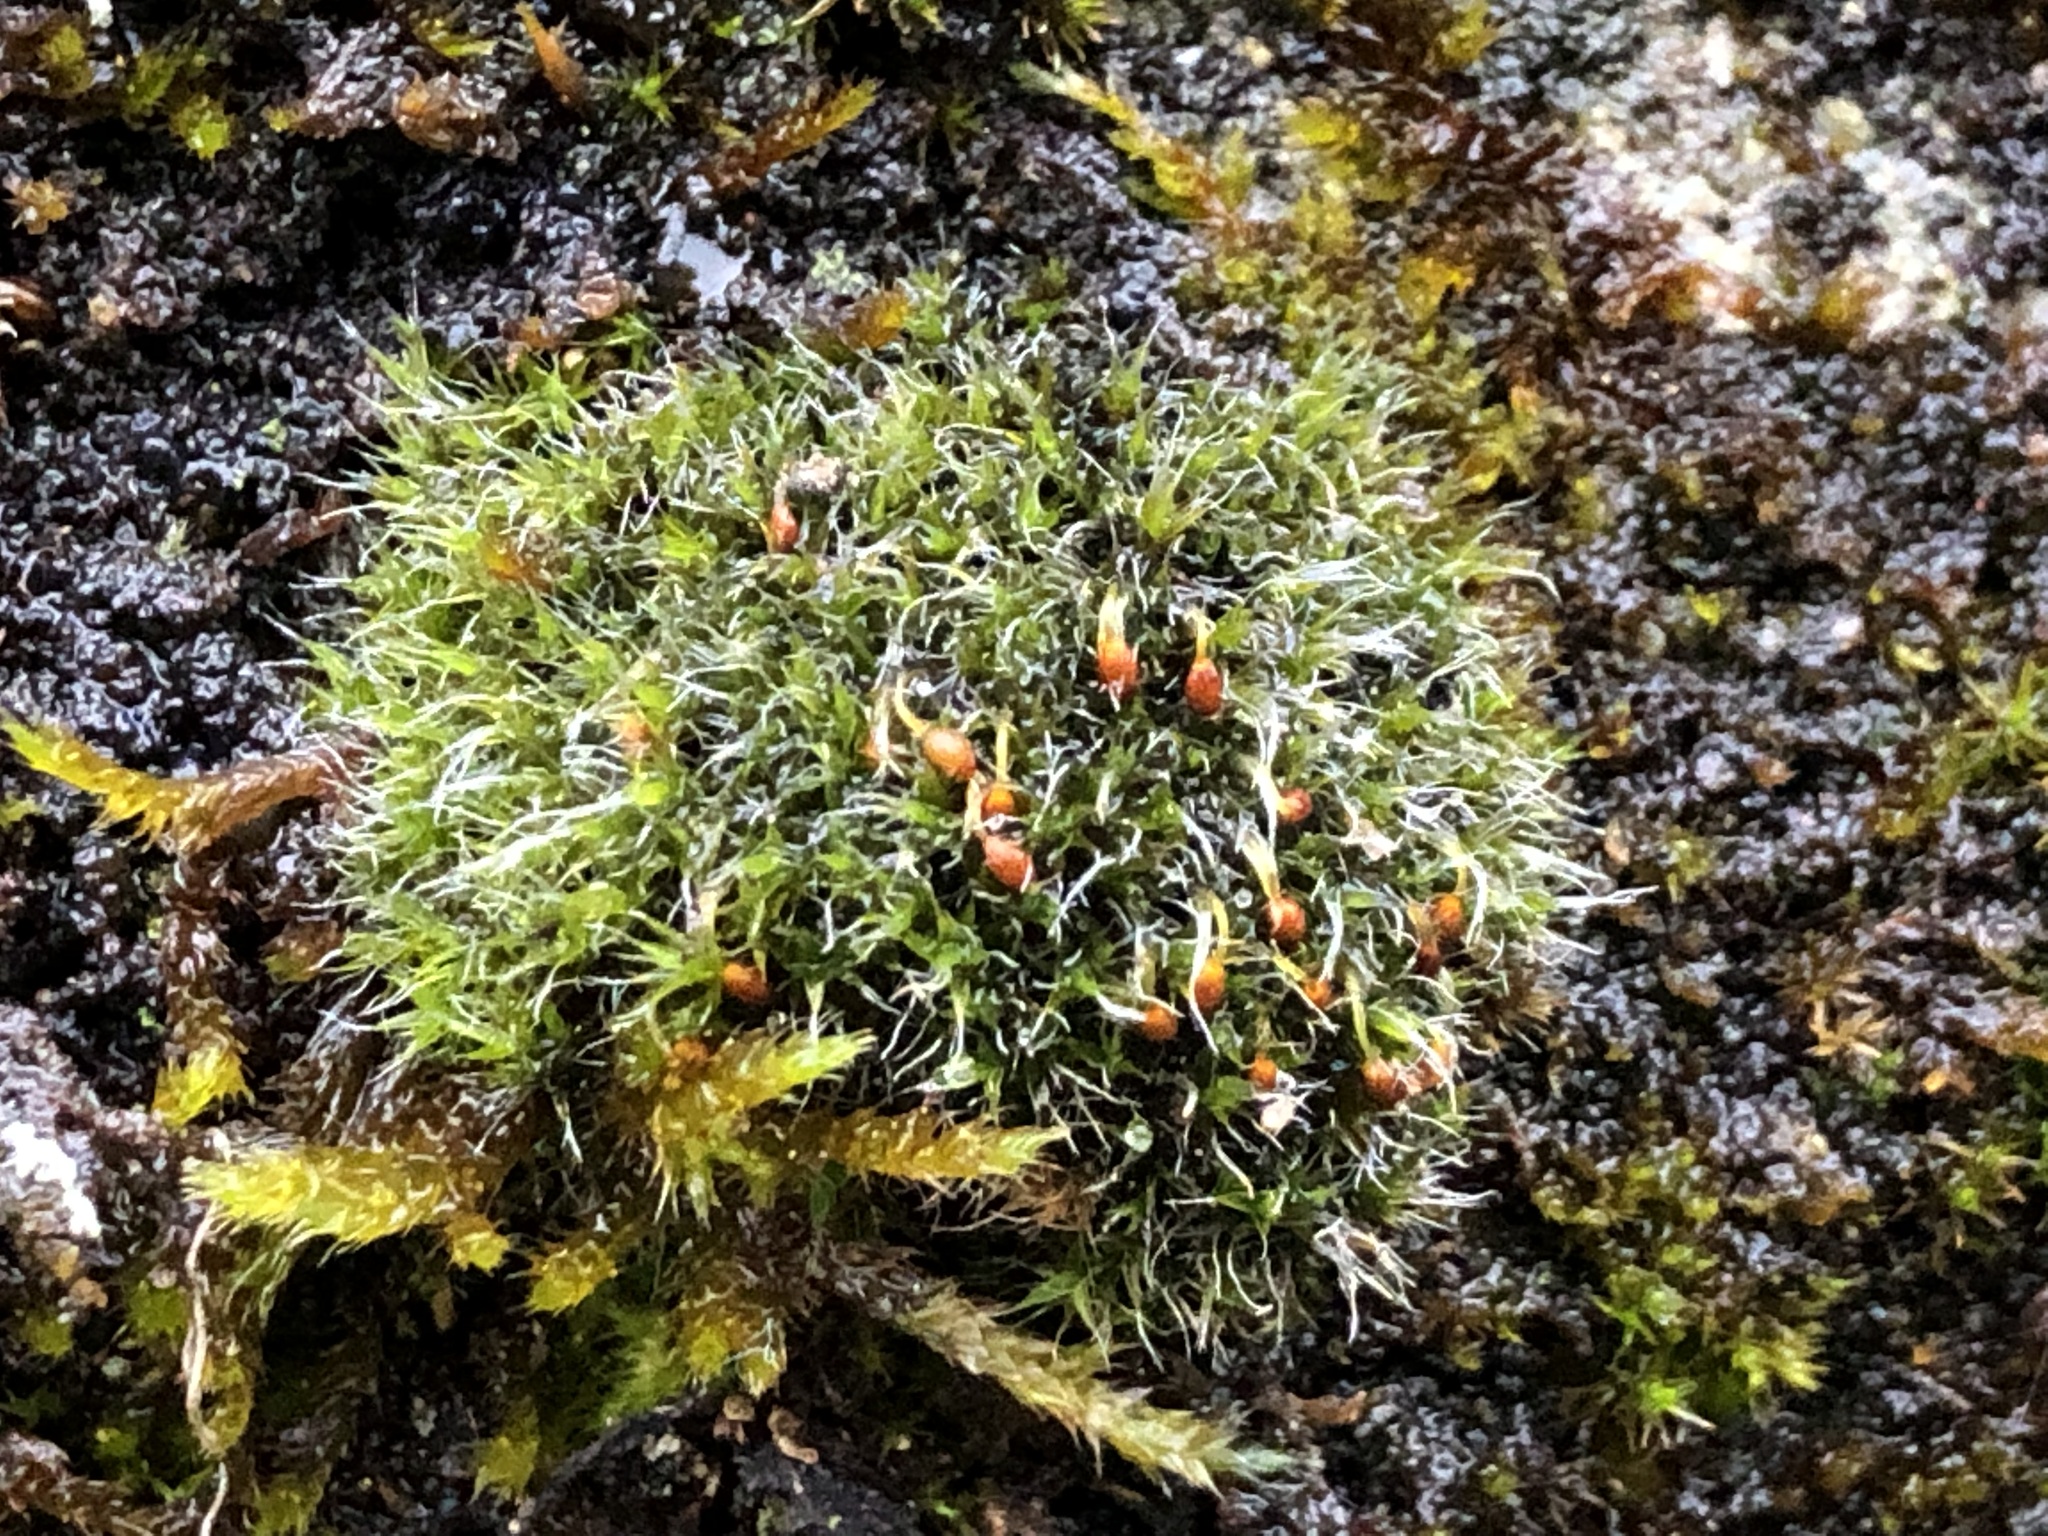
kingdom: Plantae
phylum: Bryophyta
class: Bryopsida
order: Grimmiales
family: Grimmiaceae
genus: Grimmia
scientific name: Grimmia pulvinata
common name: Grey-cushioned grimmia
